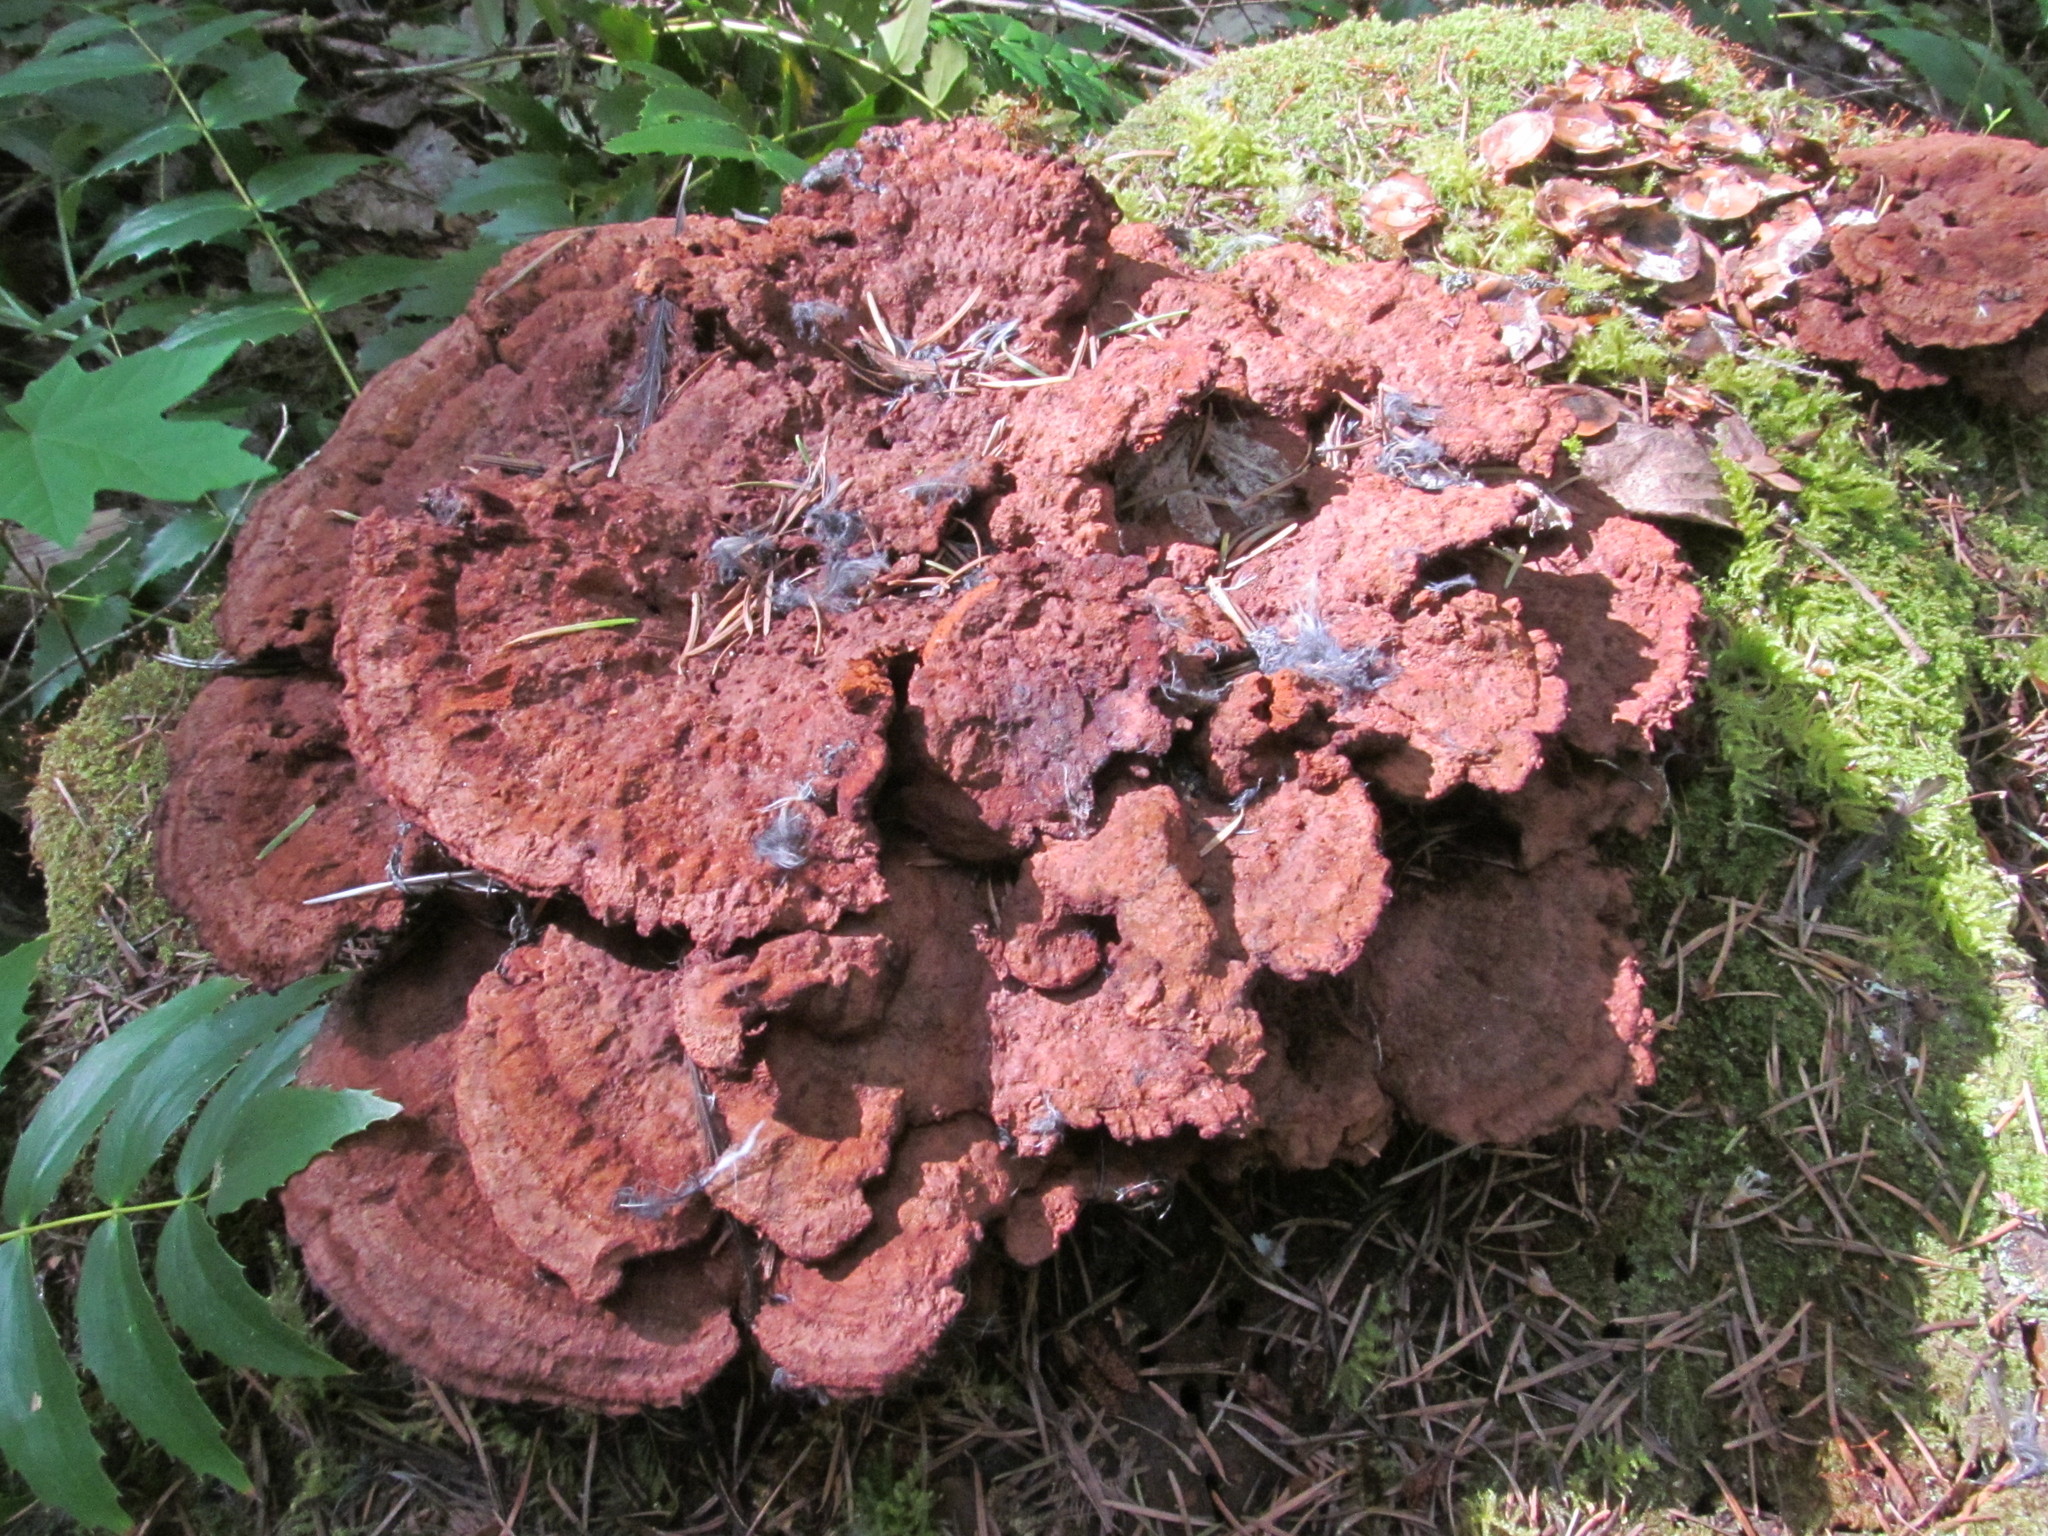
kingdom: Fungi
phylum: Basidiomycota
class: Agaricomycetes
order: Polyporales
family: Laetiporaceae
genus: Phaeolus
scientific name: Phaeolus schweinitzii
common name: Dyer's mazegill
